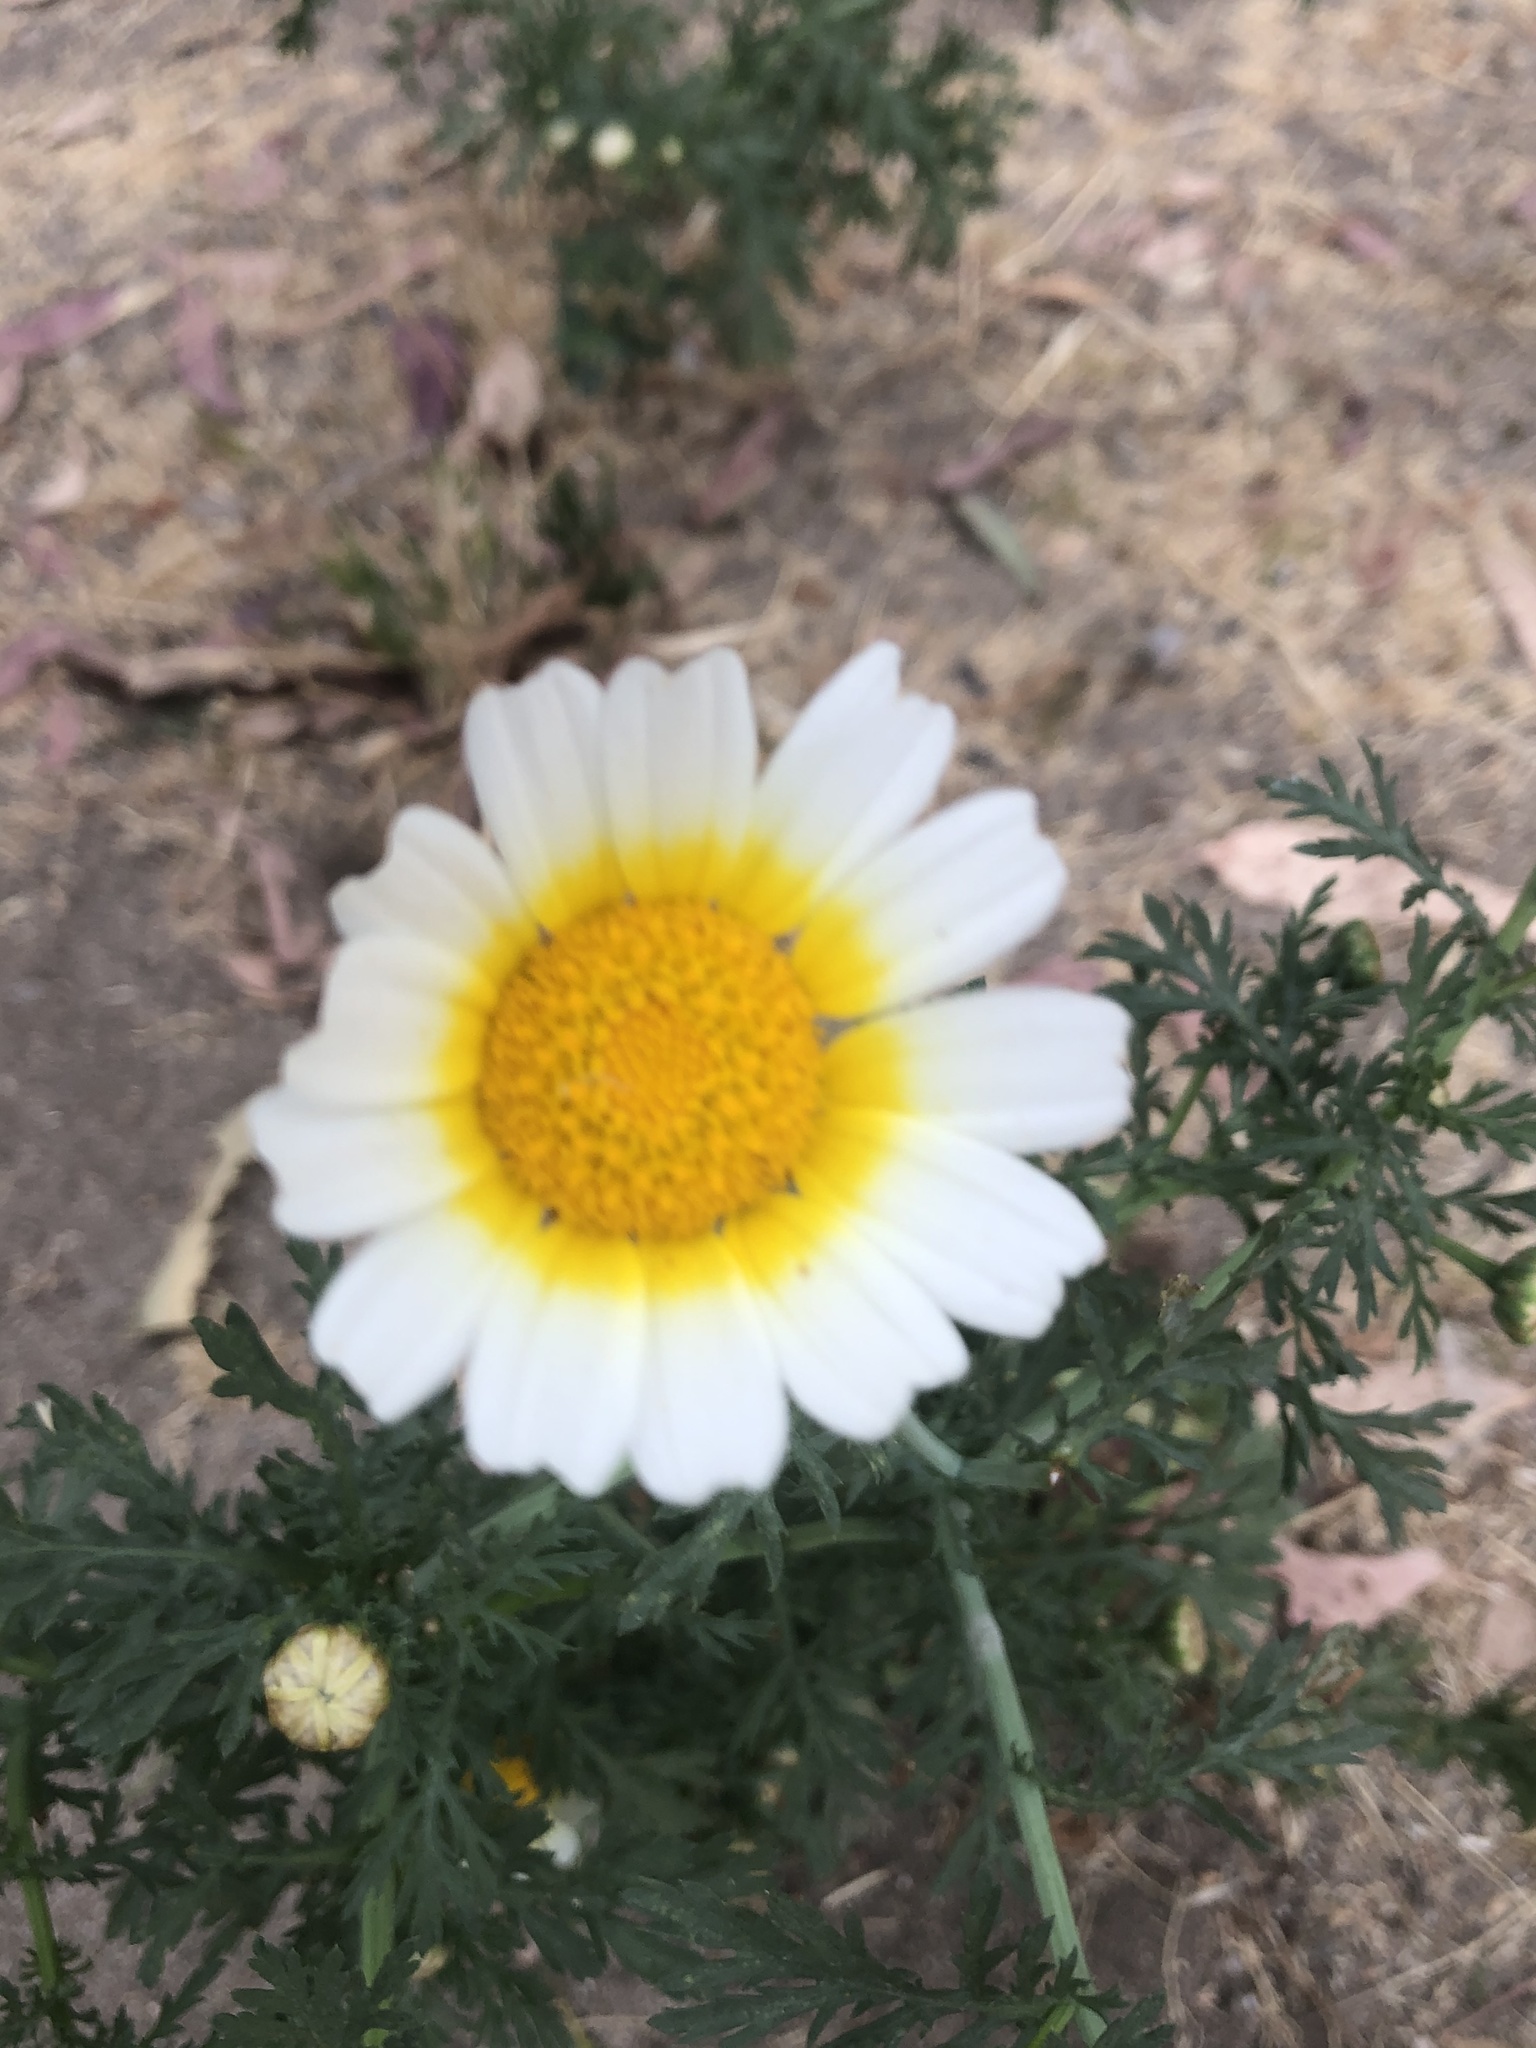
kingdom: Plantae
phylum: Tracheophyta
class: Magnoliopsida
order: Asterales
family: Asteraceae
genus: Glebionis
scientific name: Glebionis coronaria
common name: Crowndaisy
